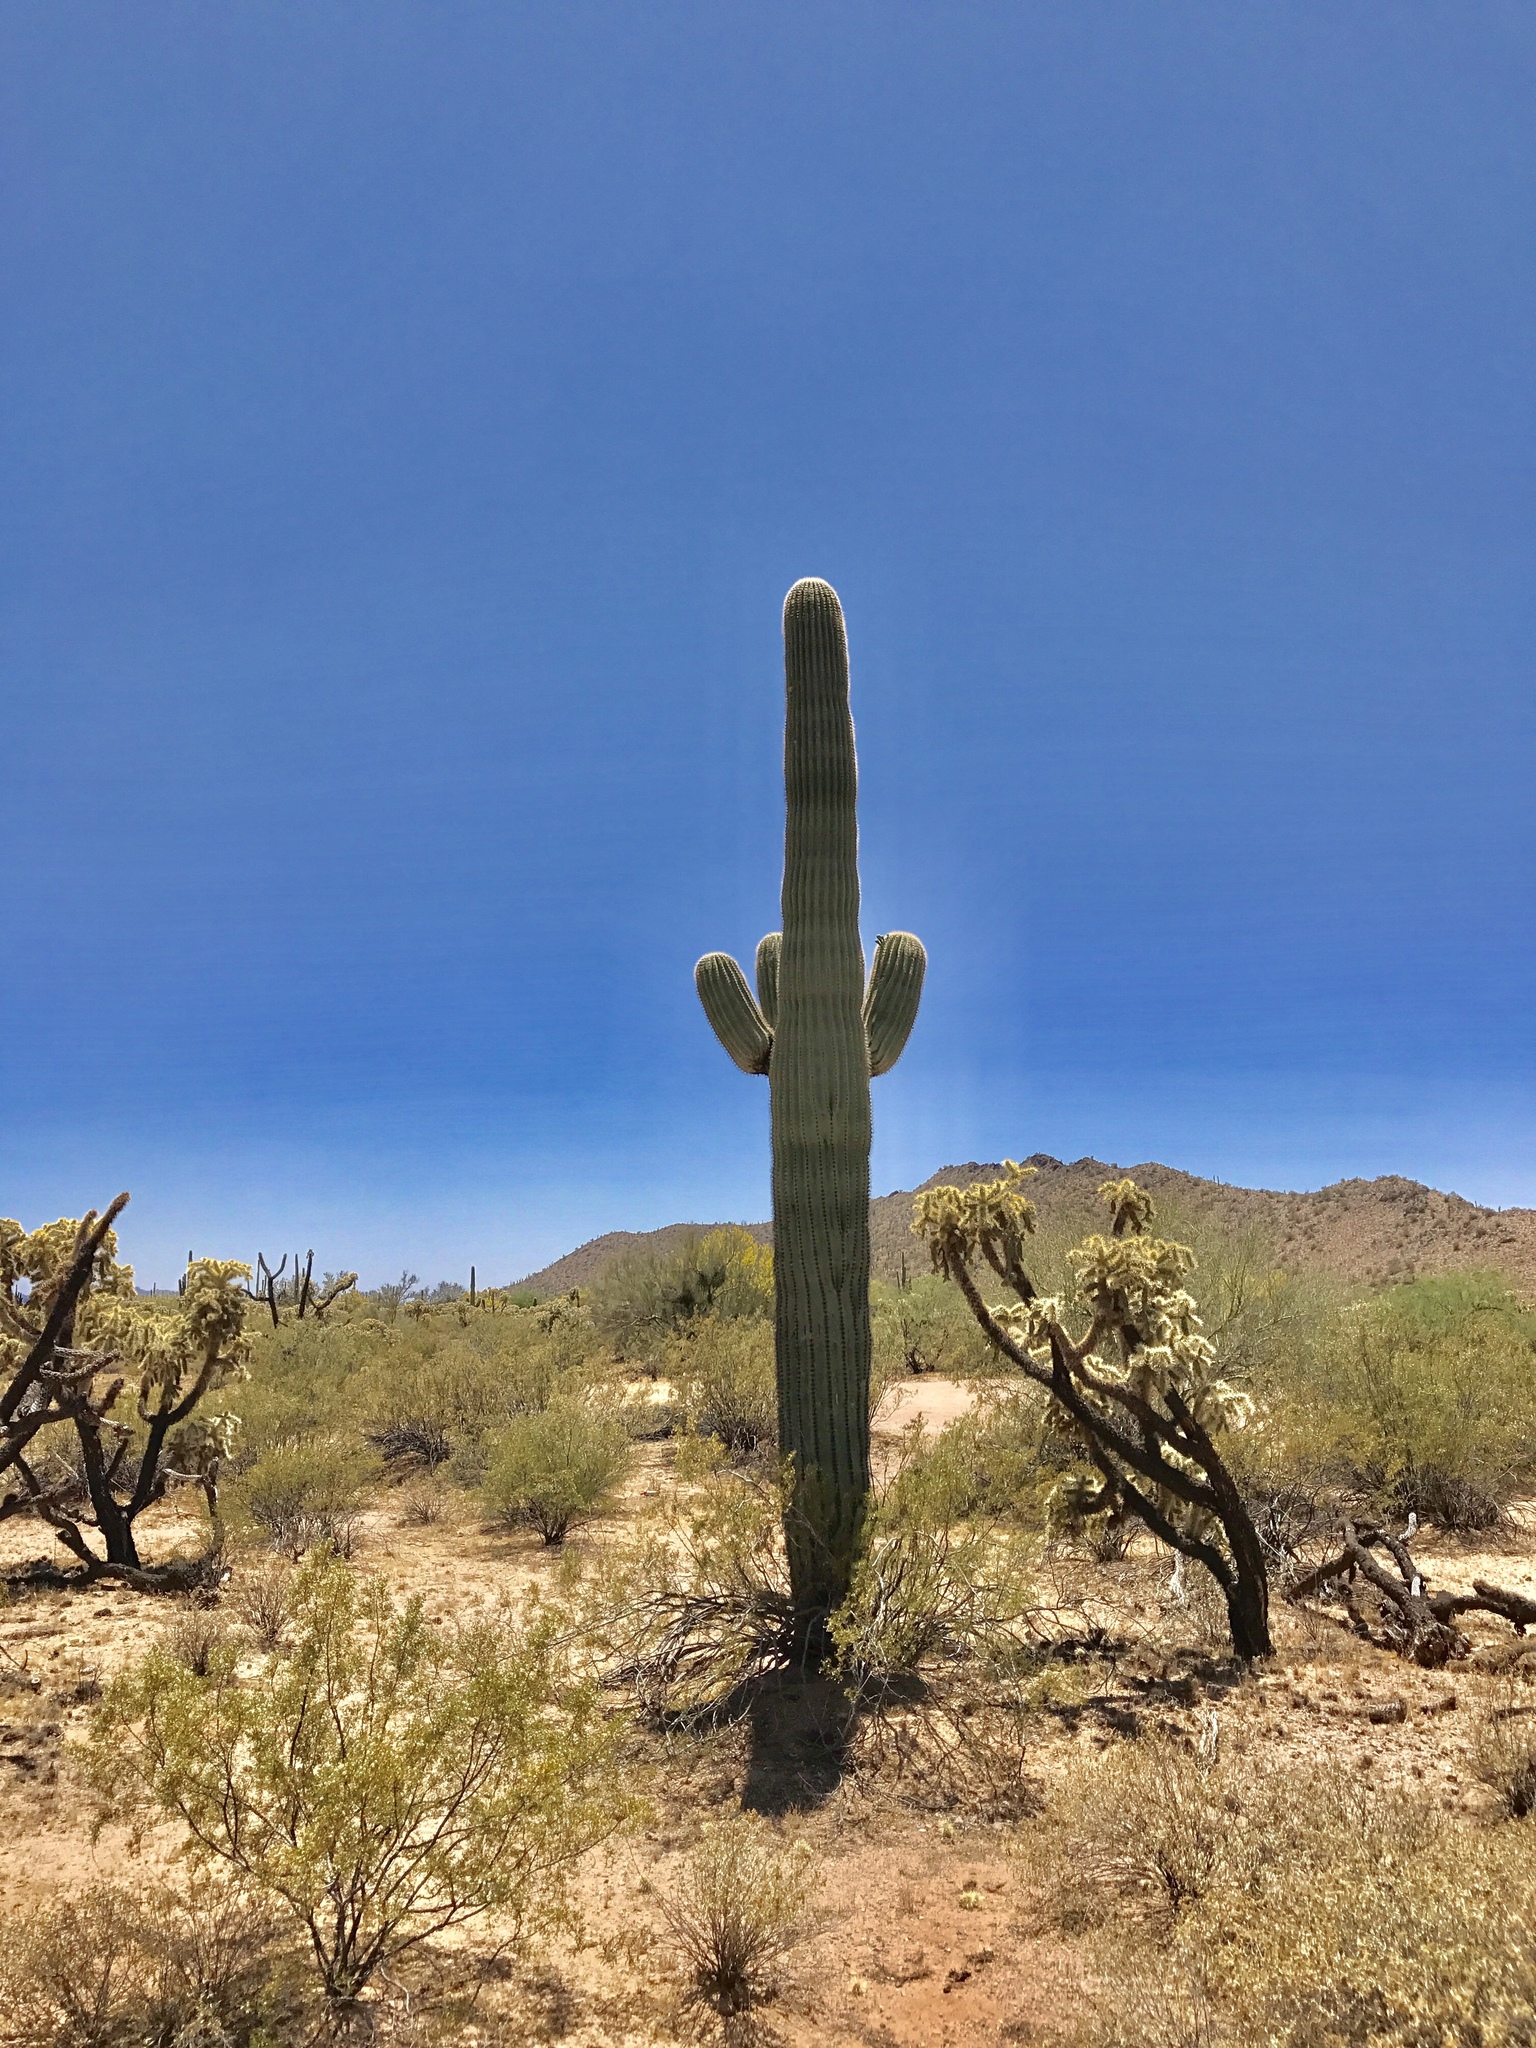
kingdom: Plantae
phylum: Tracheophyta
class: Magnoliopsida
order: Caryophyllales
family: Cactaceae
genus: Carnegiea
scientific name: Carnegiea gigantea
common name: Saguaro
